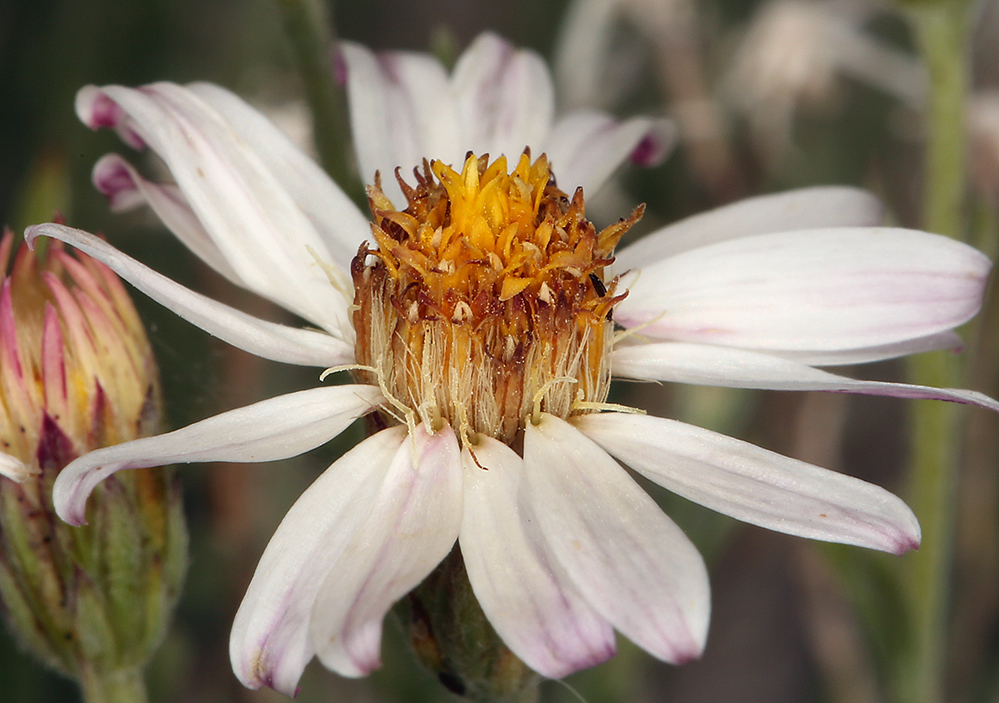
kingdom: Plantae
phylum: Tracheophyta
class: Magnoliopsida
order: Asterales
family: Asteraceae
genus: Chaetopappa
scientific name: Chaetopappa ericoides
